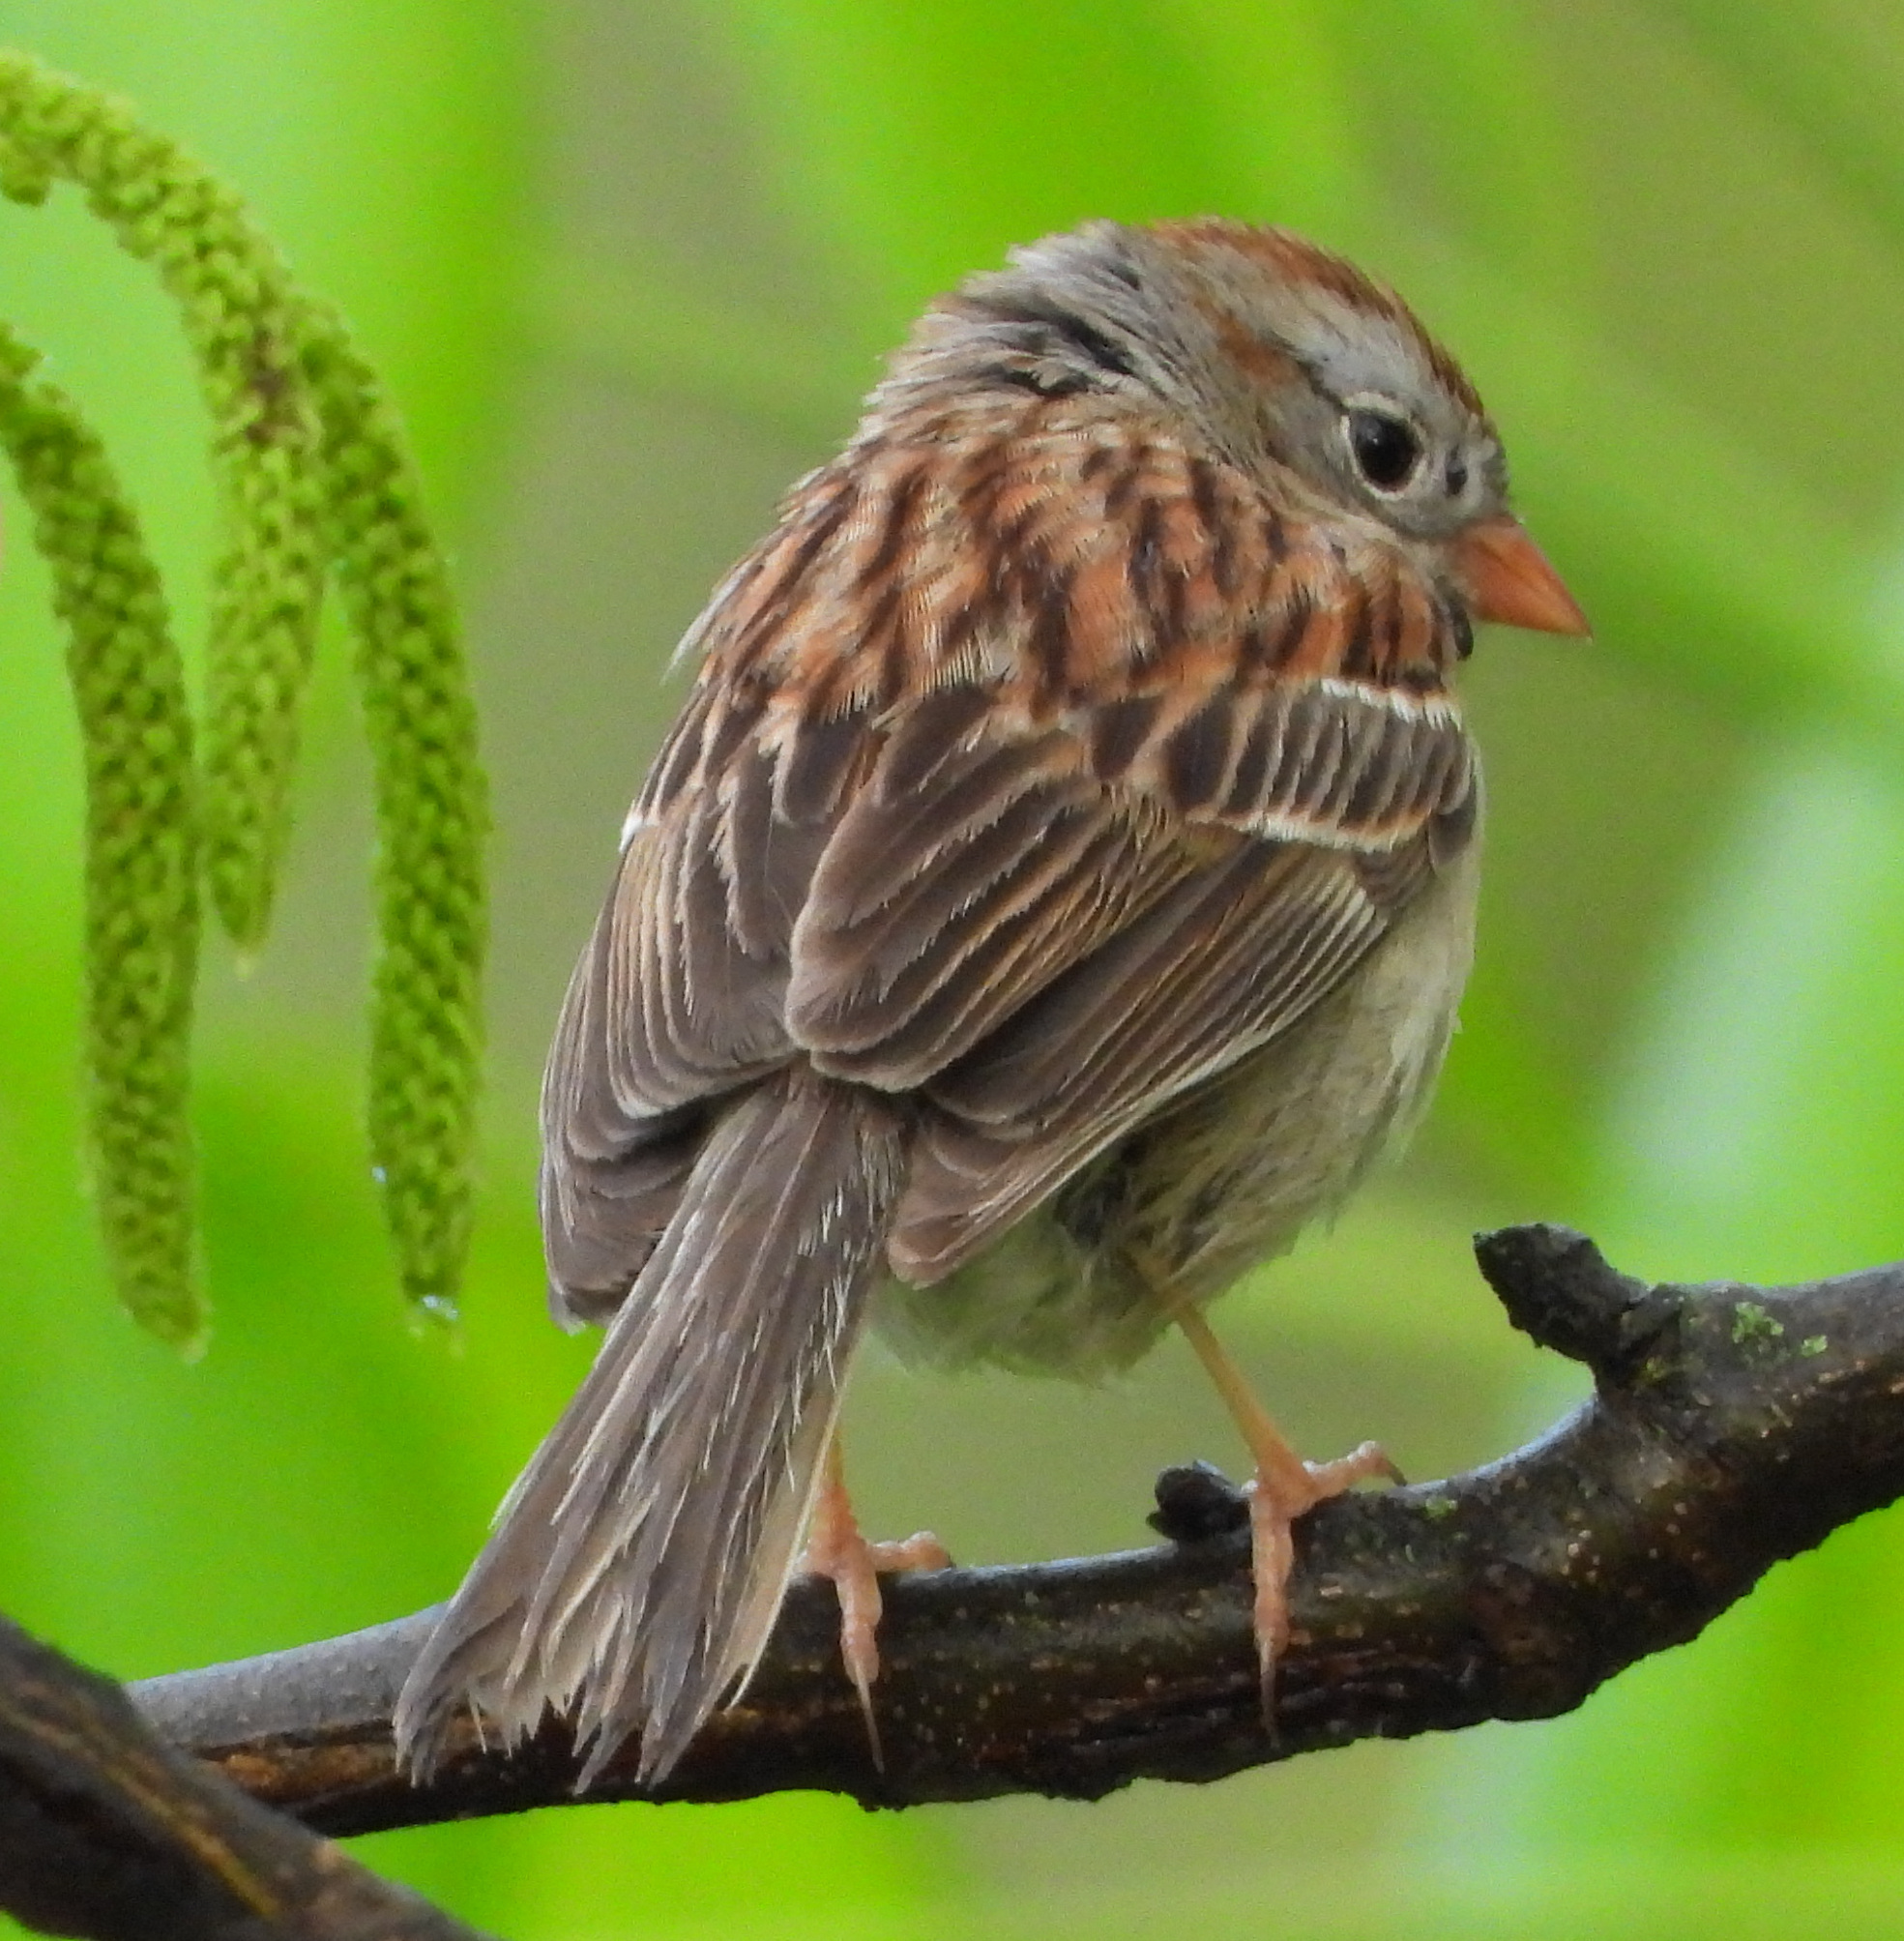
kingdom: Animalia
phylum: Chordata
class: Aves
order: Passeriformes
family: Passerellidae
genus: Spizella
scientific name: Spizella pusilla
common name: Field sparrow
